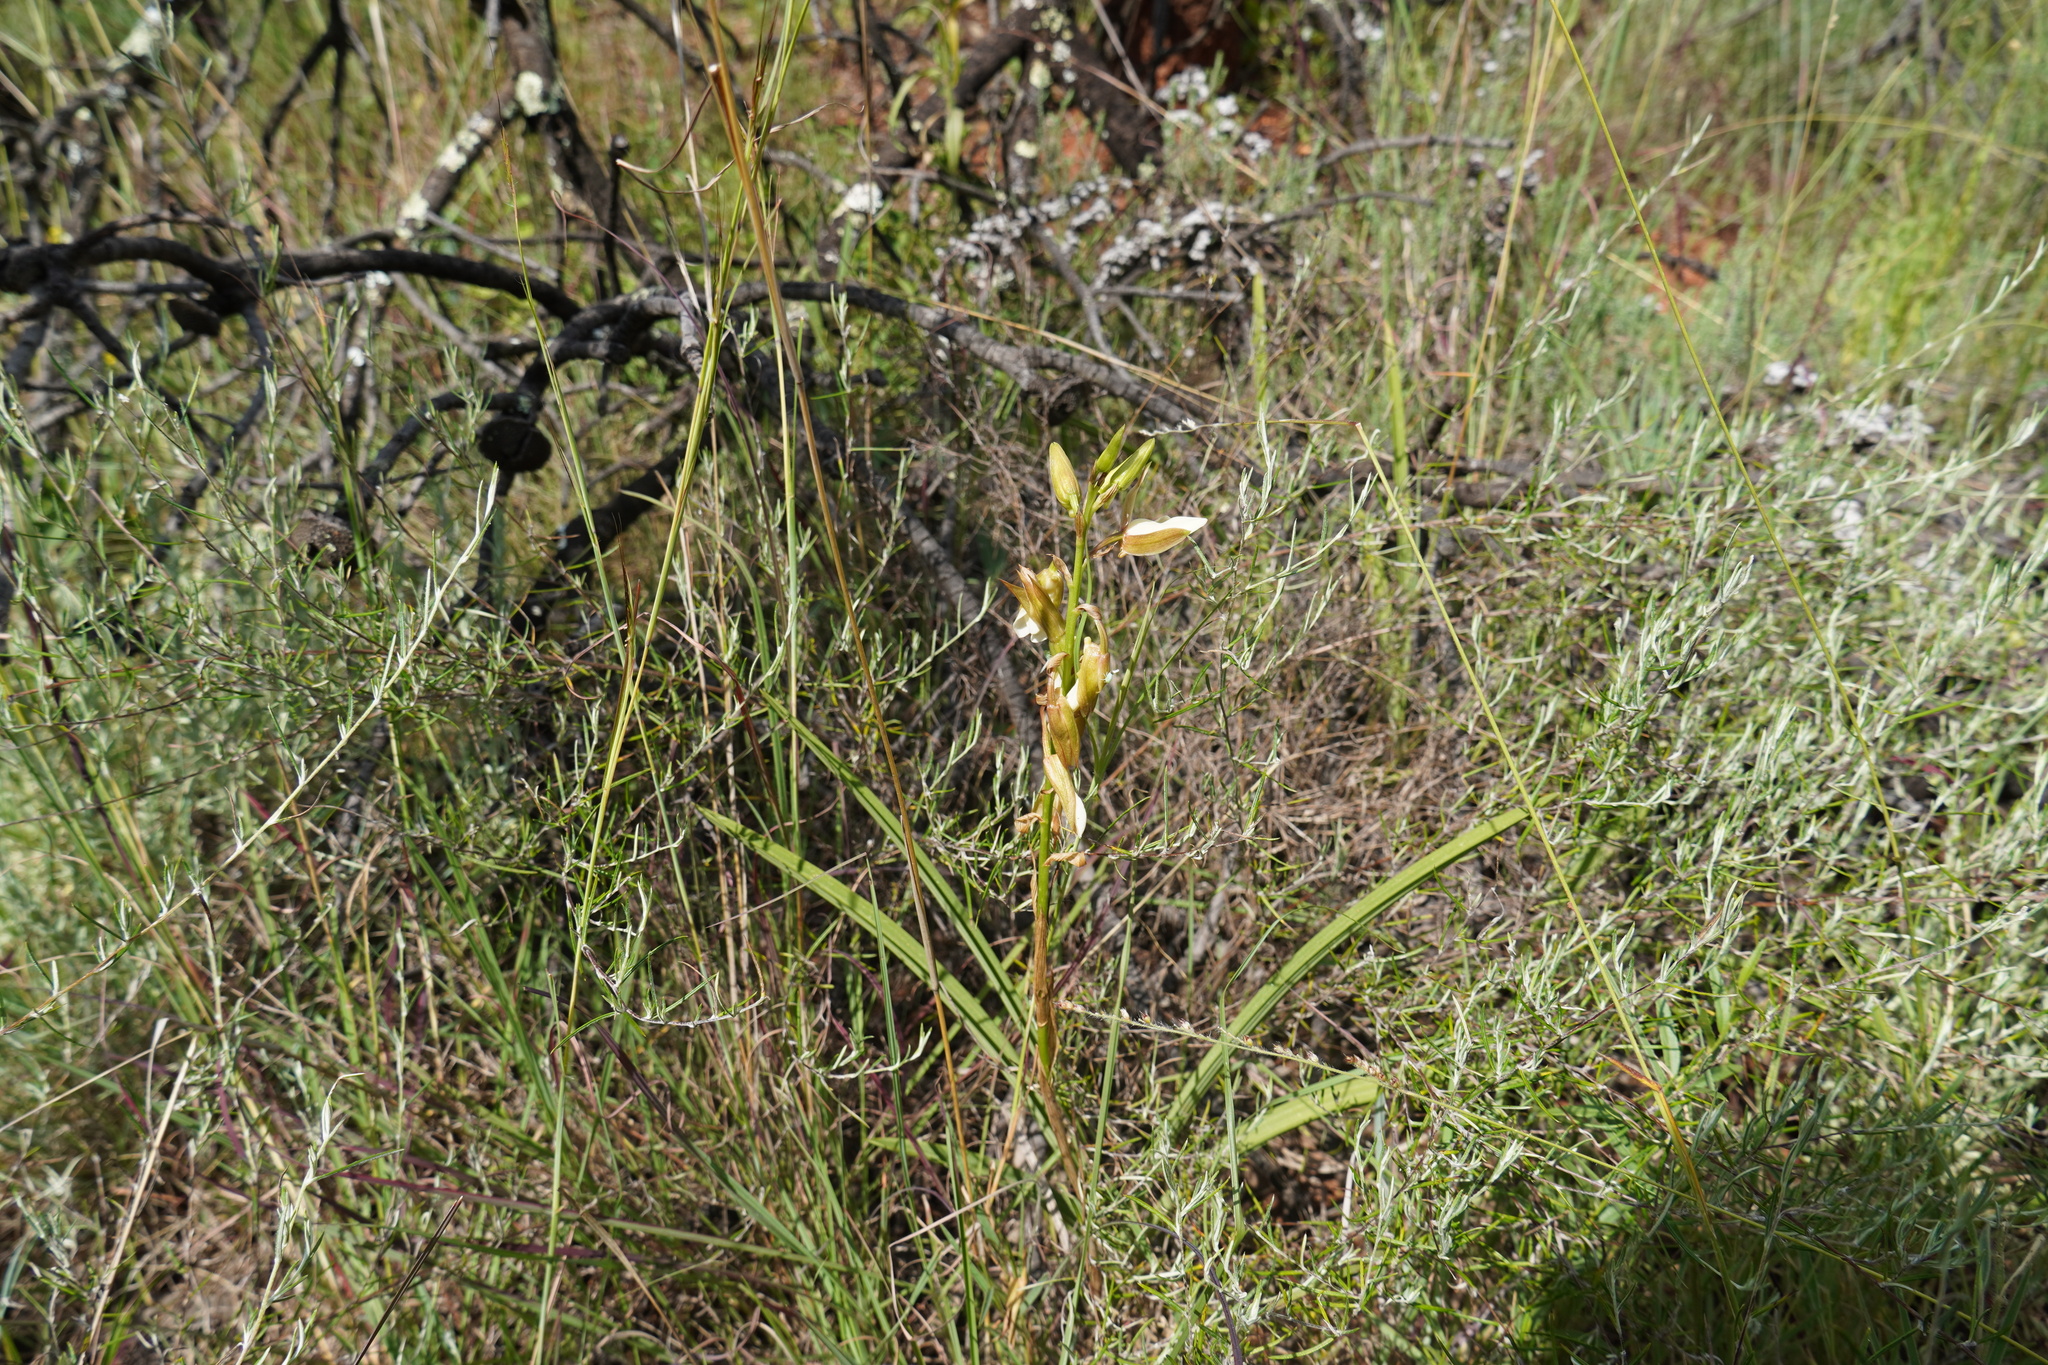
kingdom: Plantae
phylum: Tracheophyta
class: Liliopsida
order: Asparagales
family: Orchidaceae
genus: Eulophia
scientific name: Eulophia ovalis
